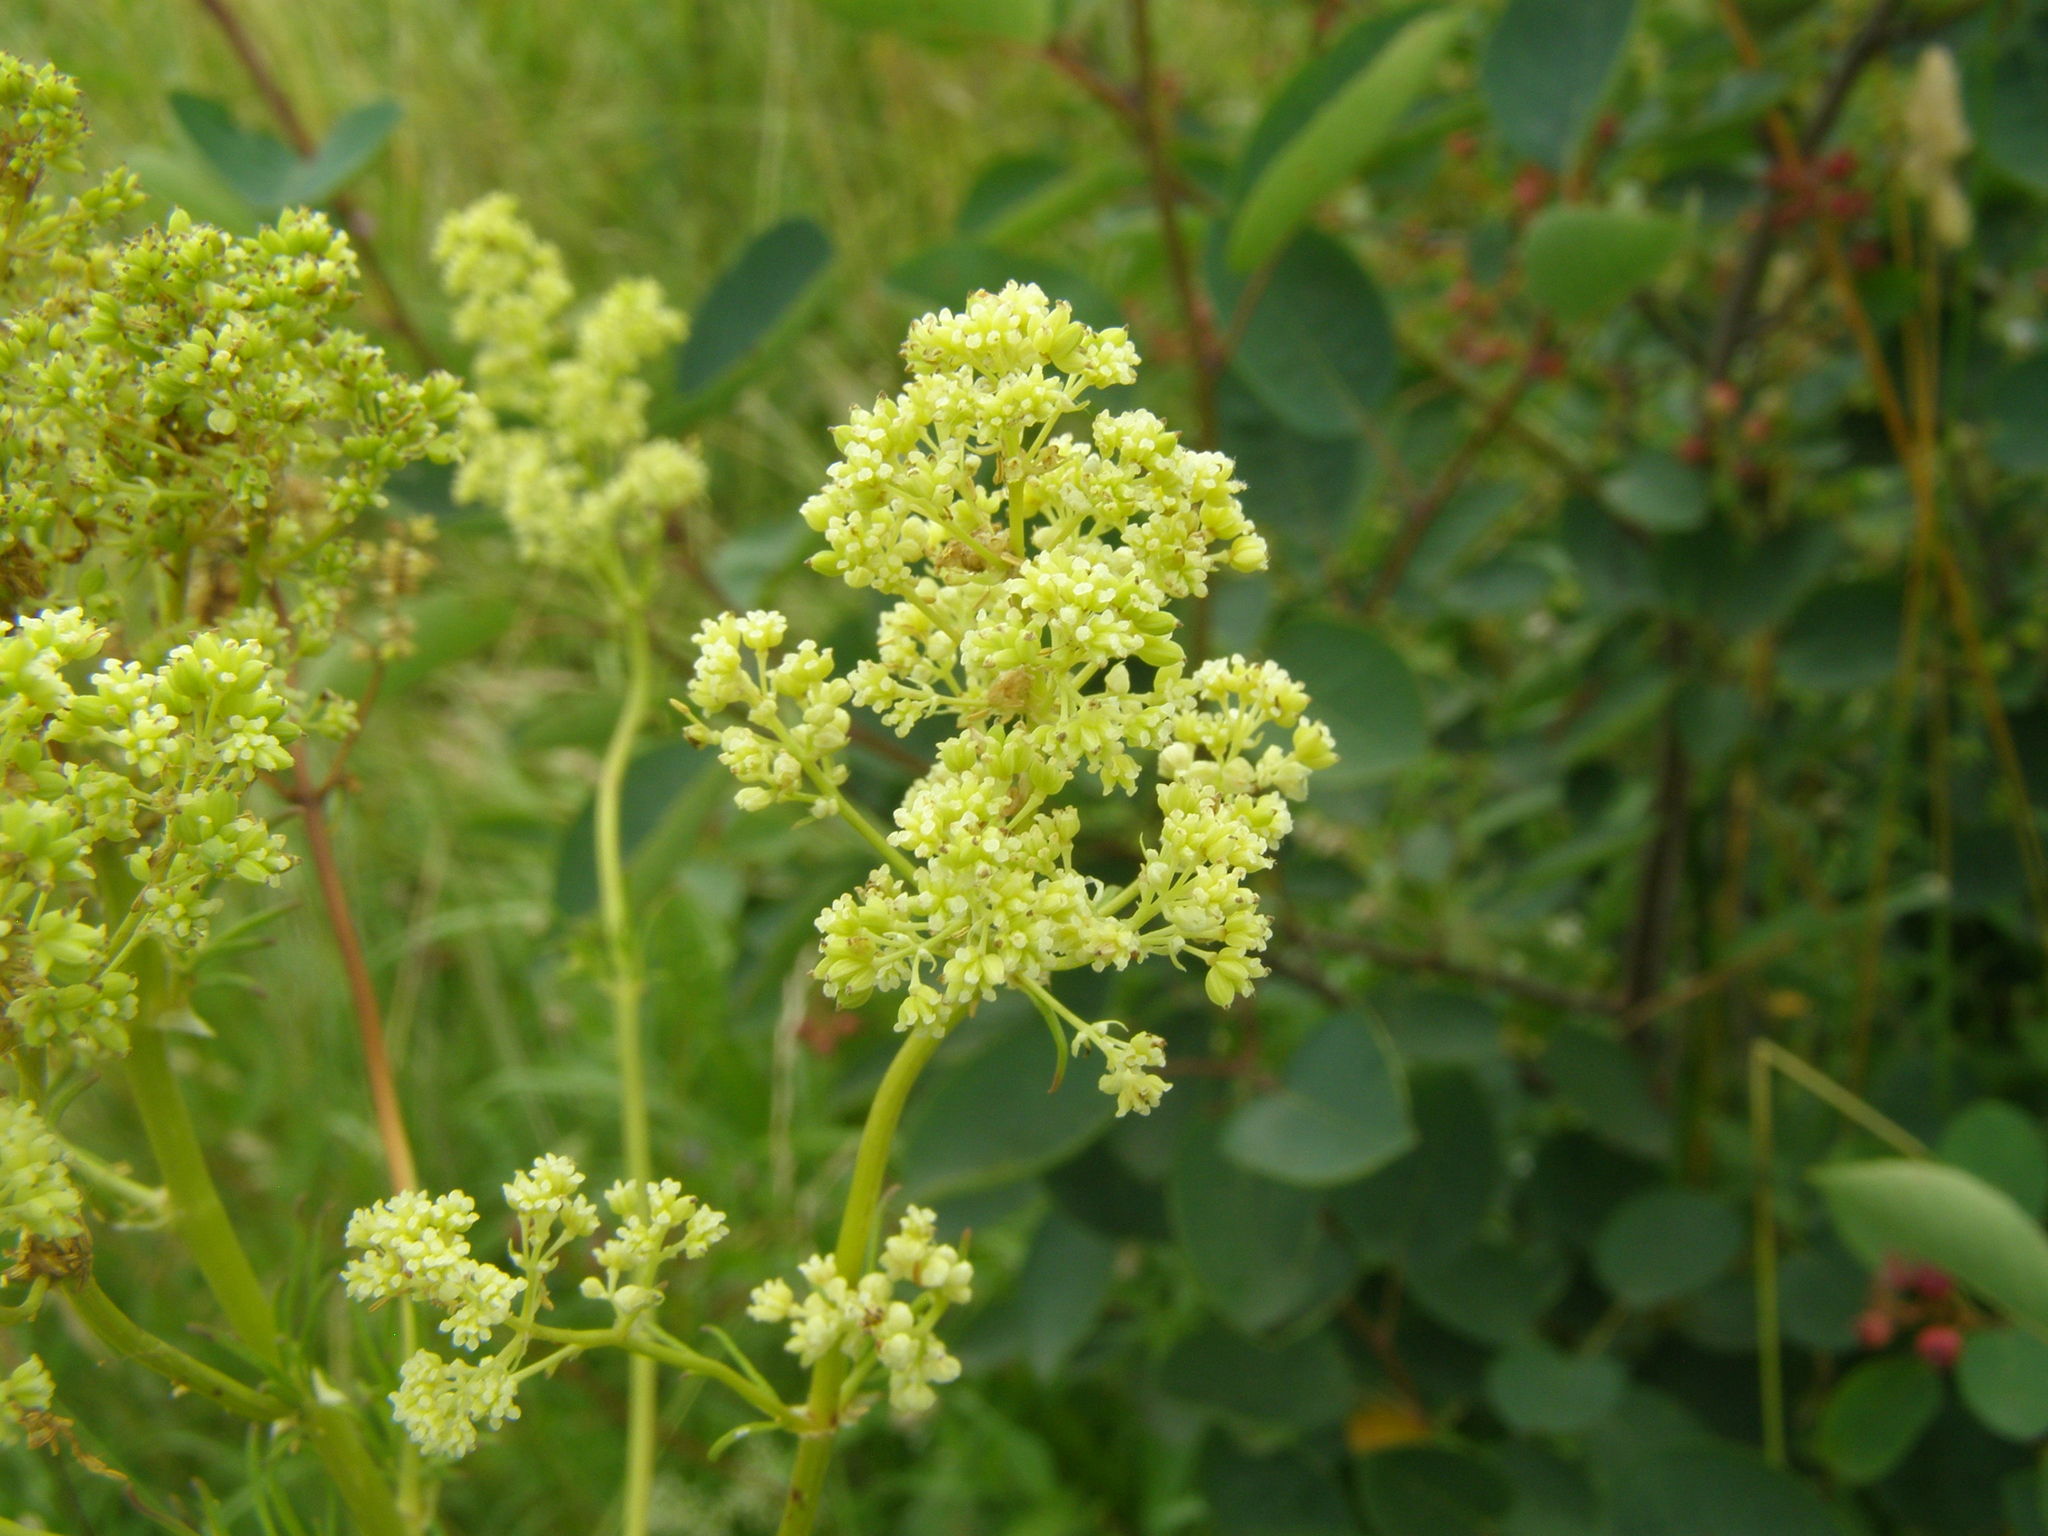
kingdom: Plantae
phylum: Tracheophyta
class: Magnoliopsida
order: Ranunculales
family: Ranunculaceae
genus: Thalictrum
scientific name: Thalictrum lucidum
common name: Shining meadow-rue
